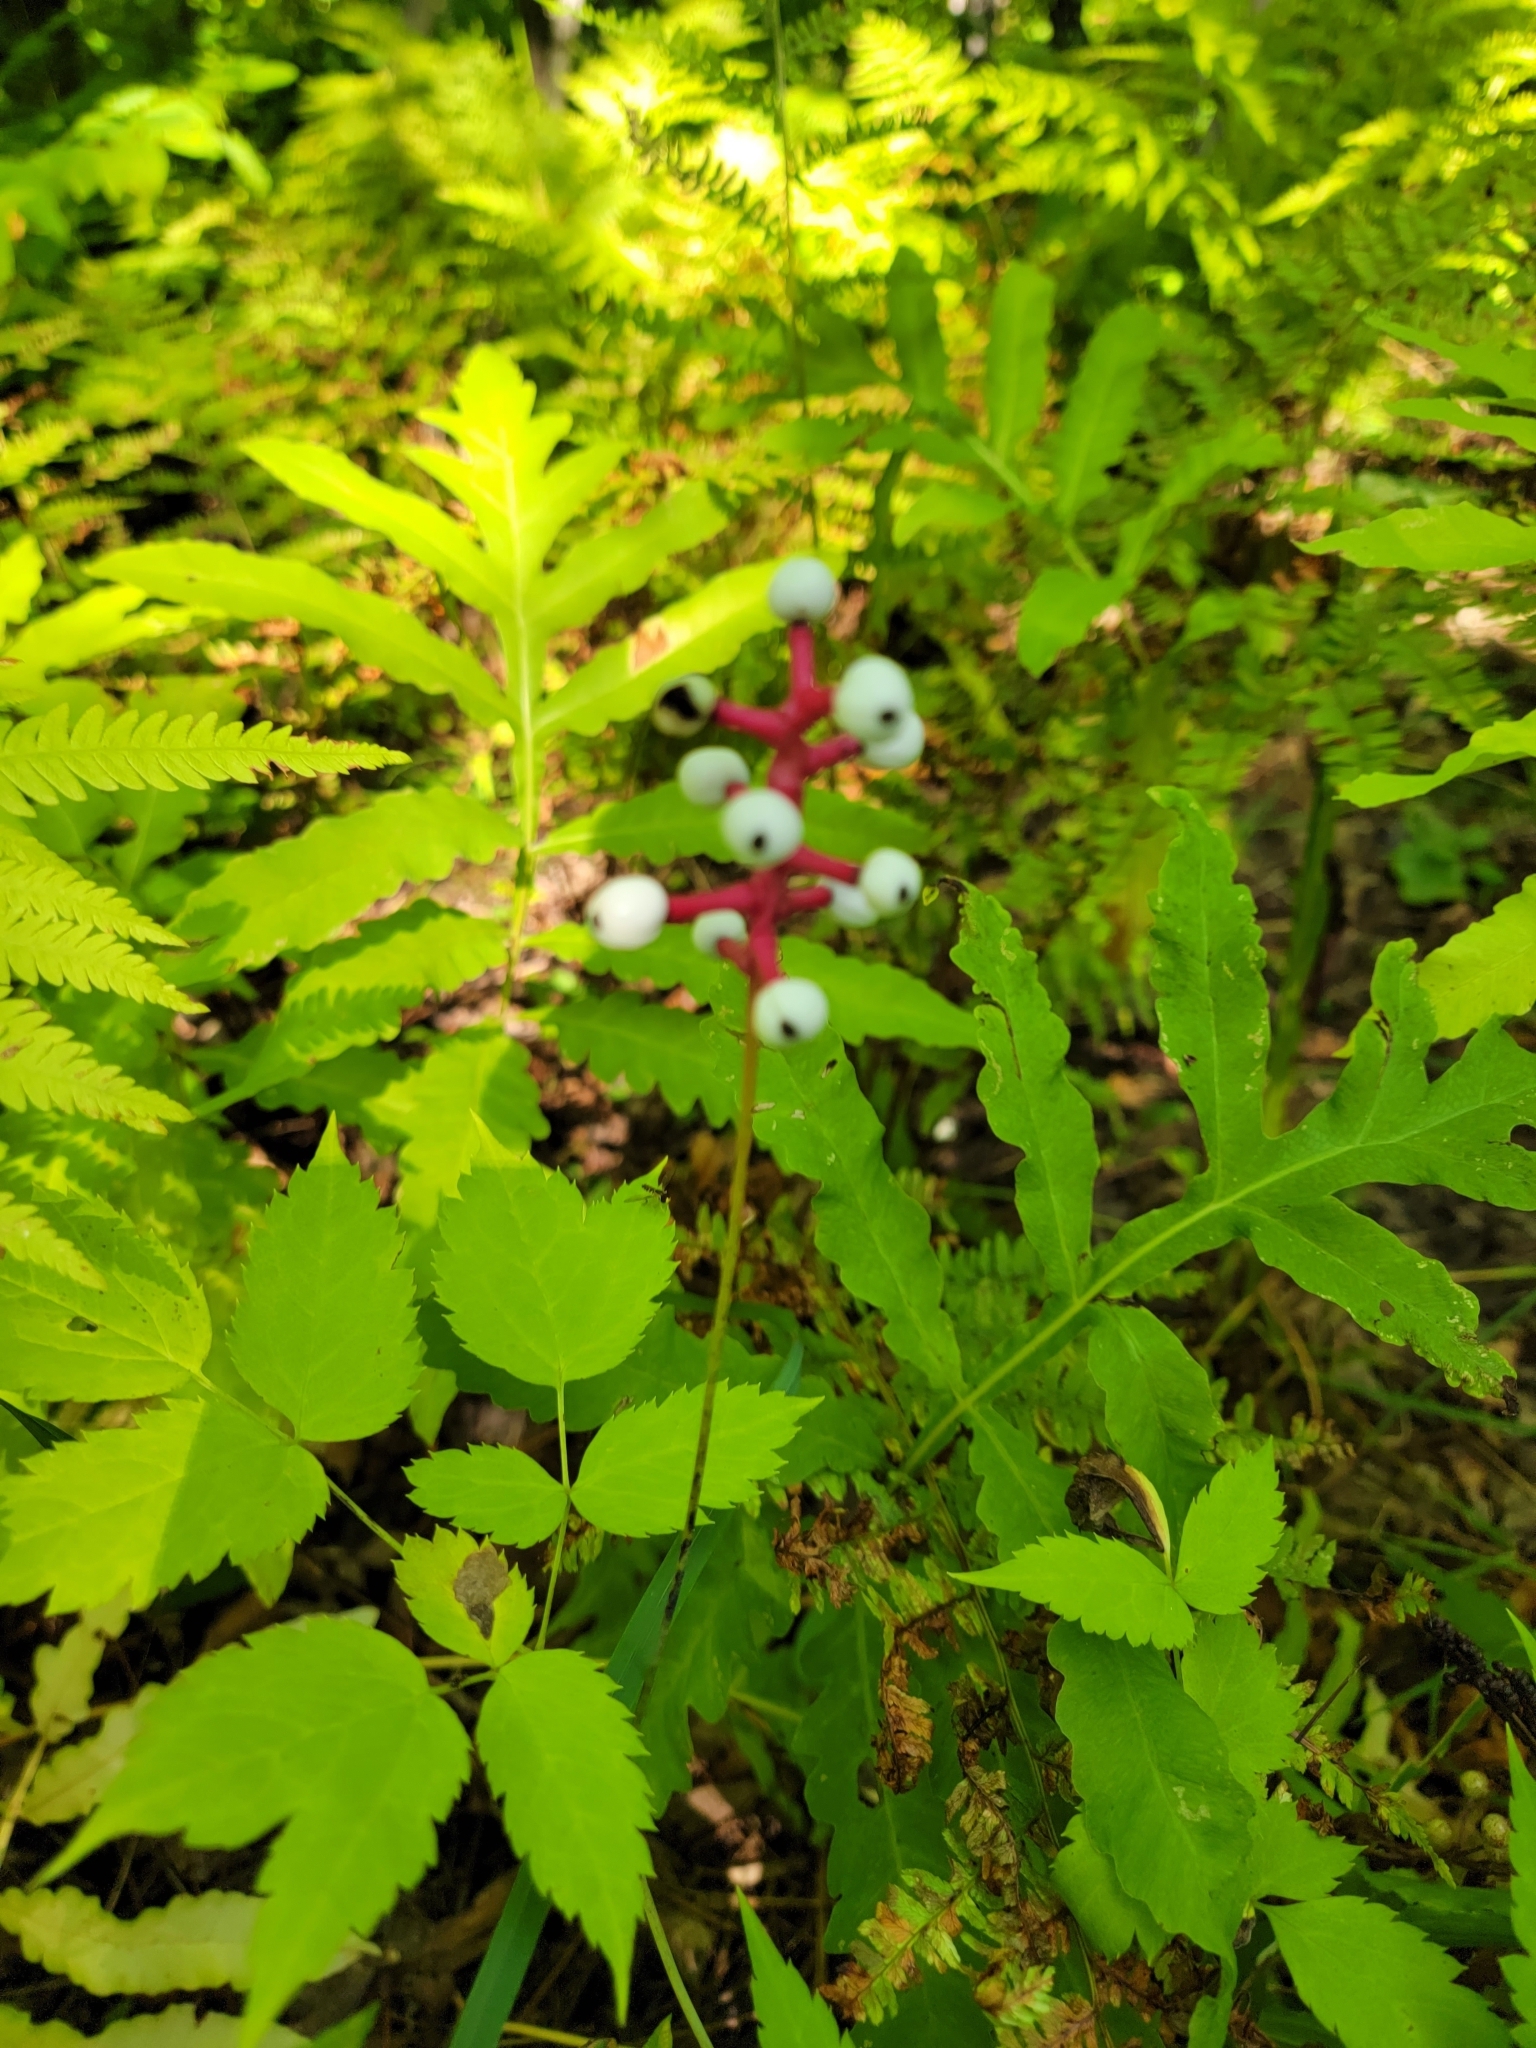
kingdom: Plantae
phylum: Tracheophyta
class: Magnoliopsida
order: Ranunculales
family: Ranunculaceae
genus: Actaea
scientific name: Actaea pachypoda
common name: Doll's-eyes
